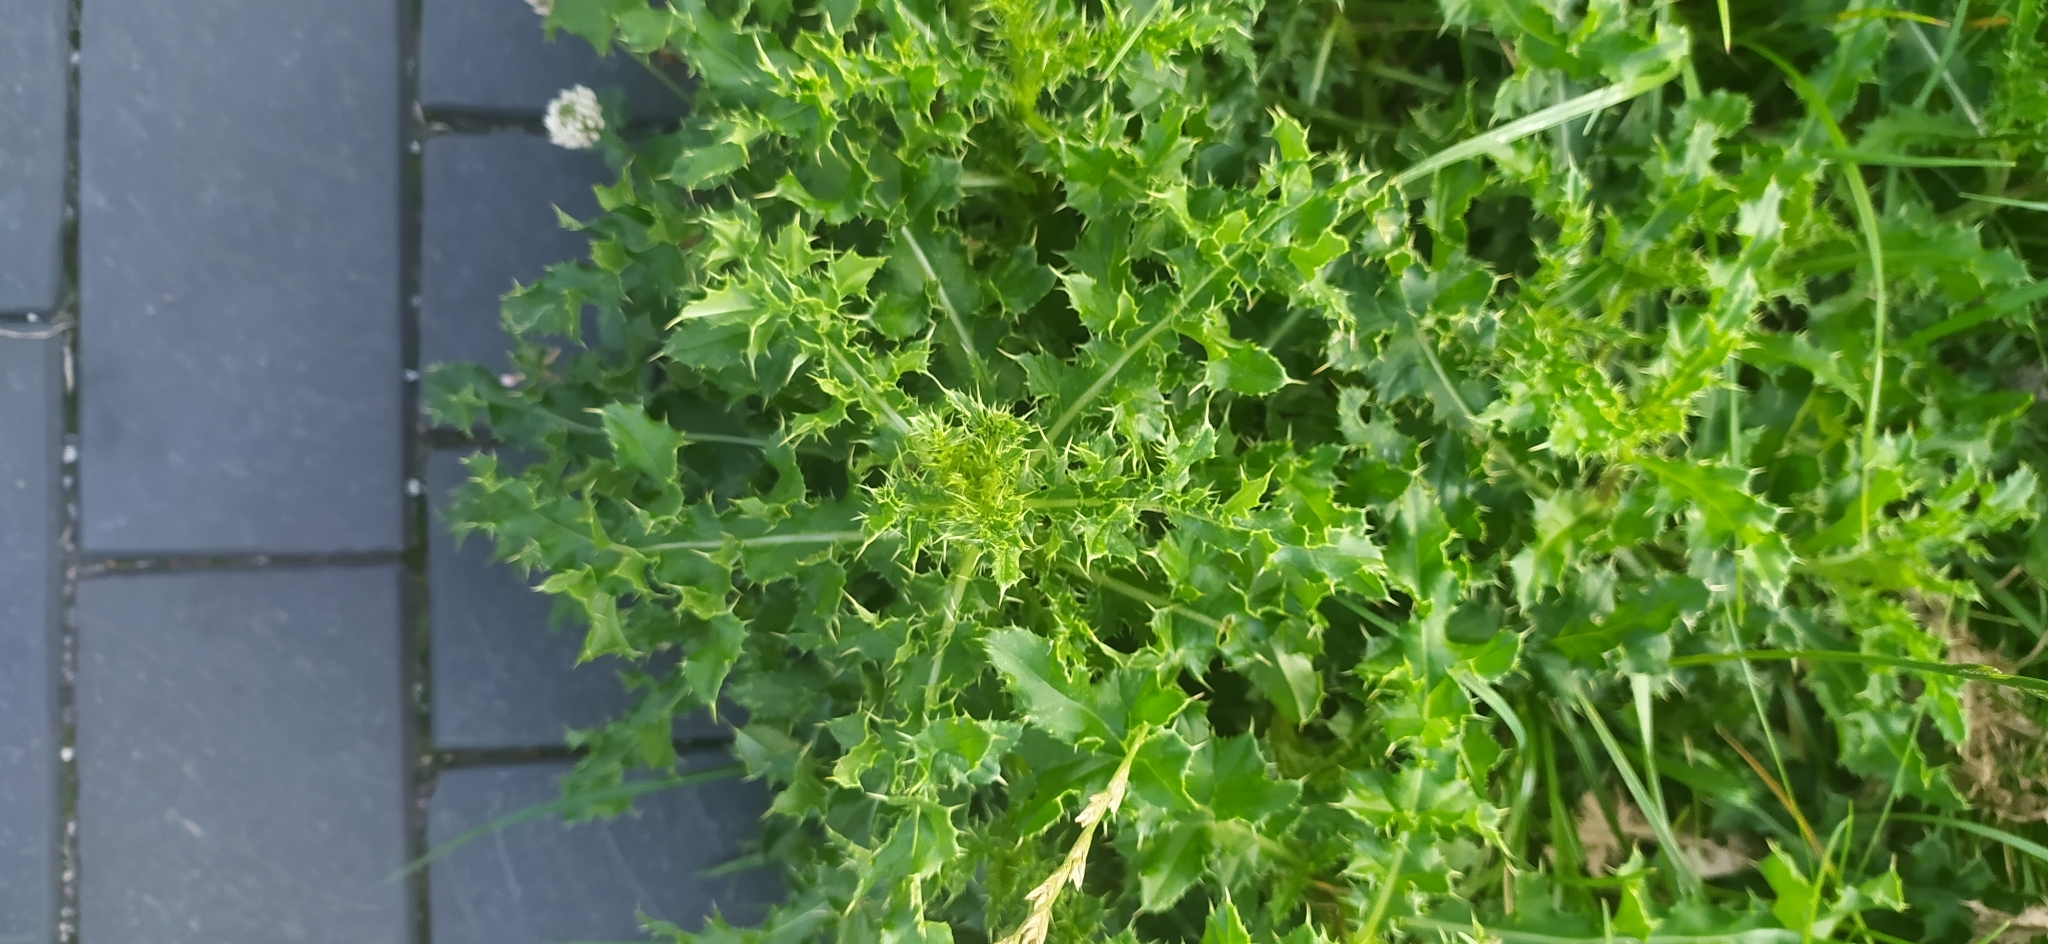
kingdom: Plantae
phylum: Tracheophyta
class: Magnoliopsida
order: Asterales
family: Asteraceae
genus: Cirsium
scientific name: Cirsium arvense
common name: Creeping thistle
